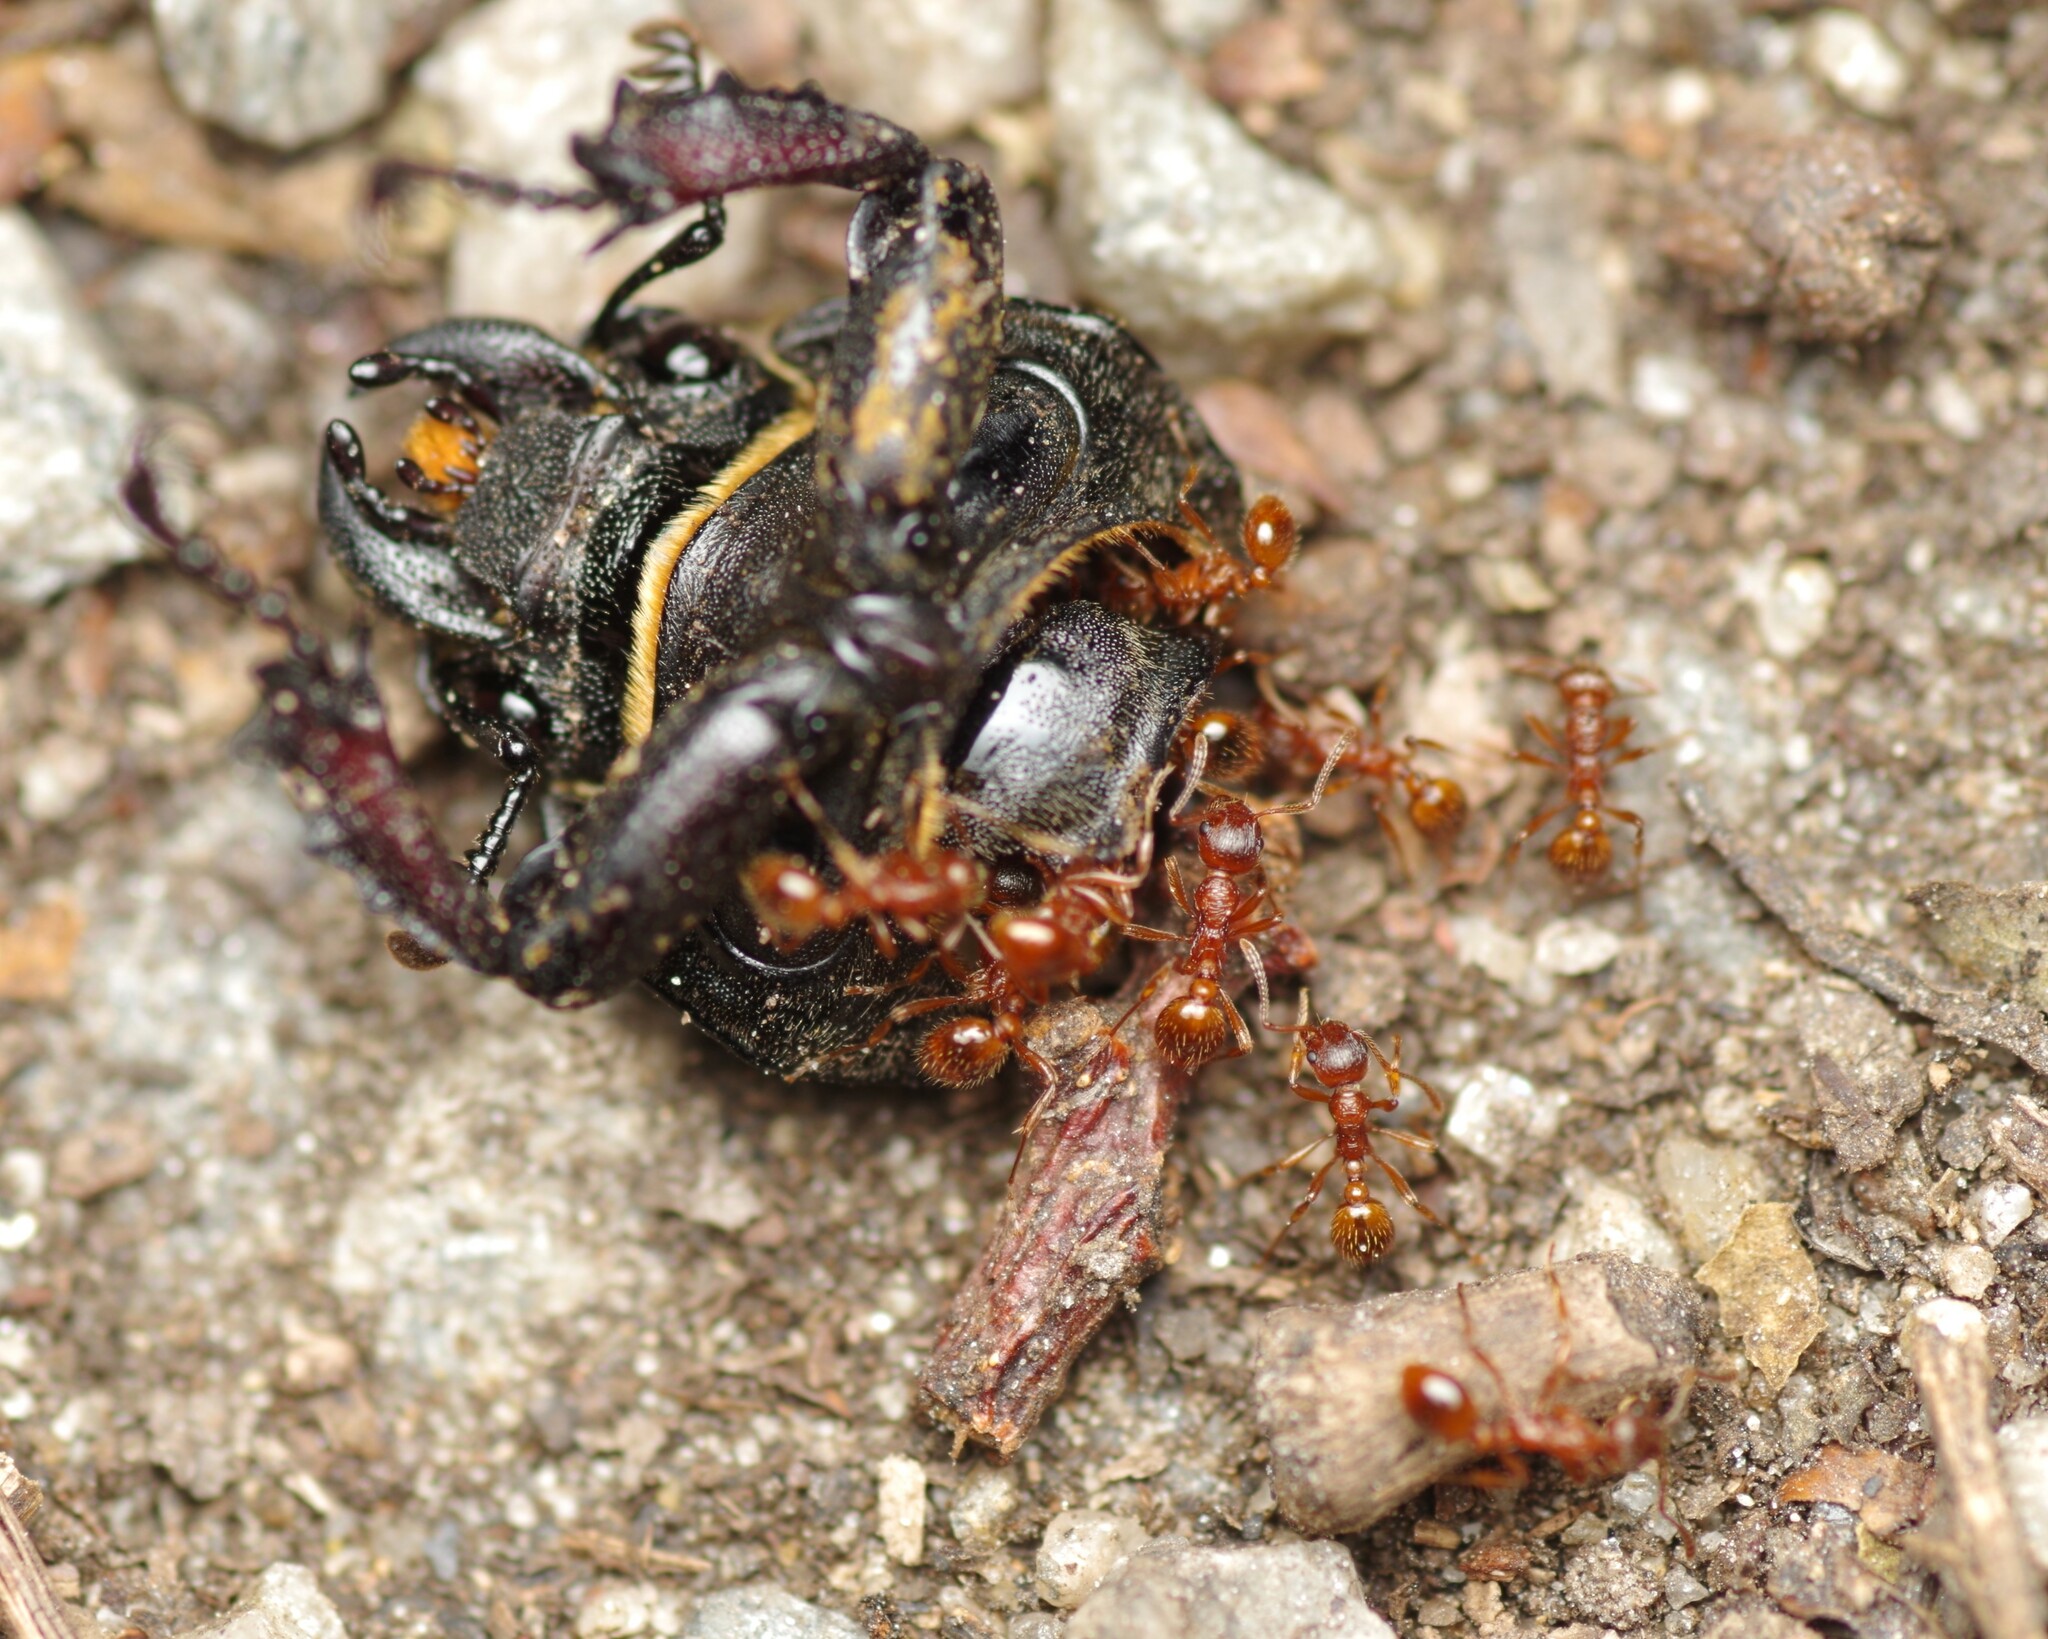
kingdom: Animalia
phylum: Arthropoda
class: Insecta
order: Coleoptera
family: Lucanidae
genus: Lucanus
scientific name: Lucanus cervus
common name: Stag beetle
